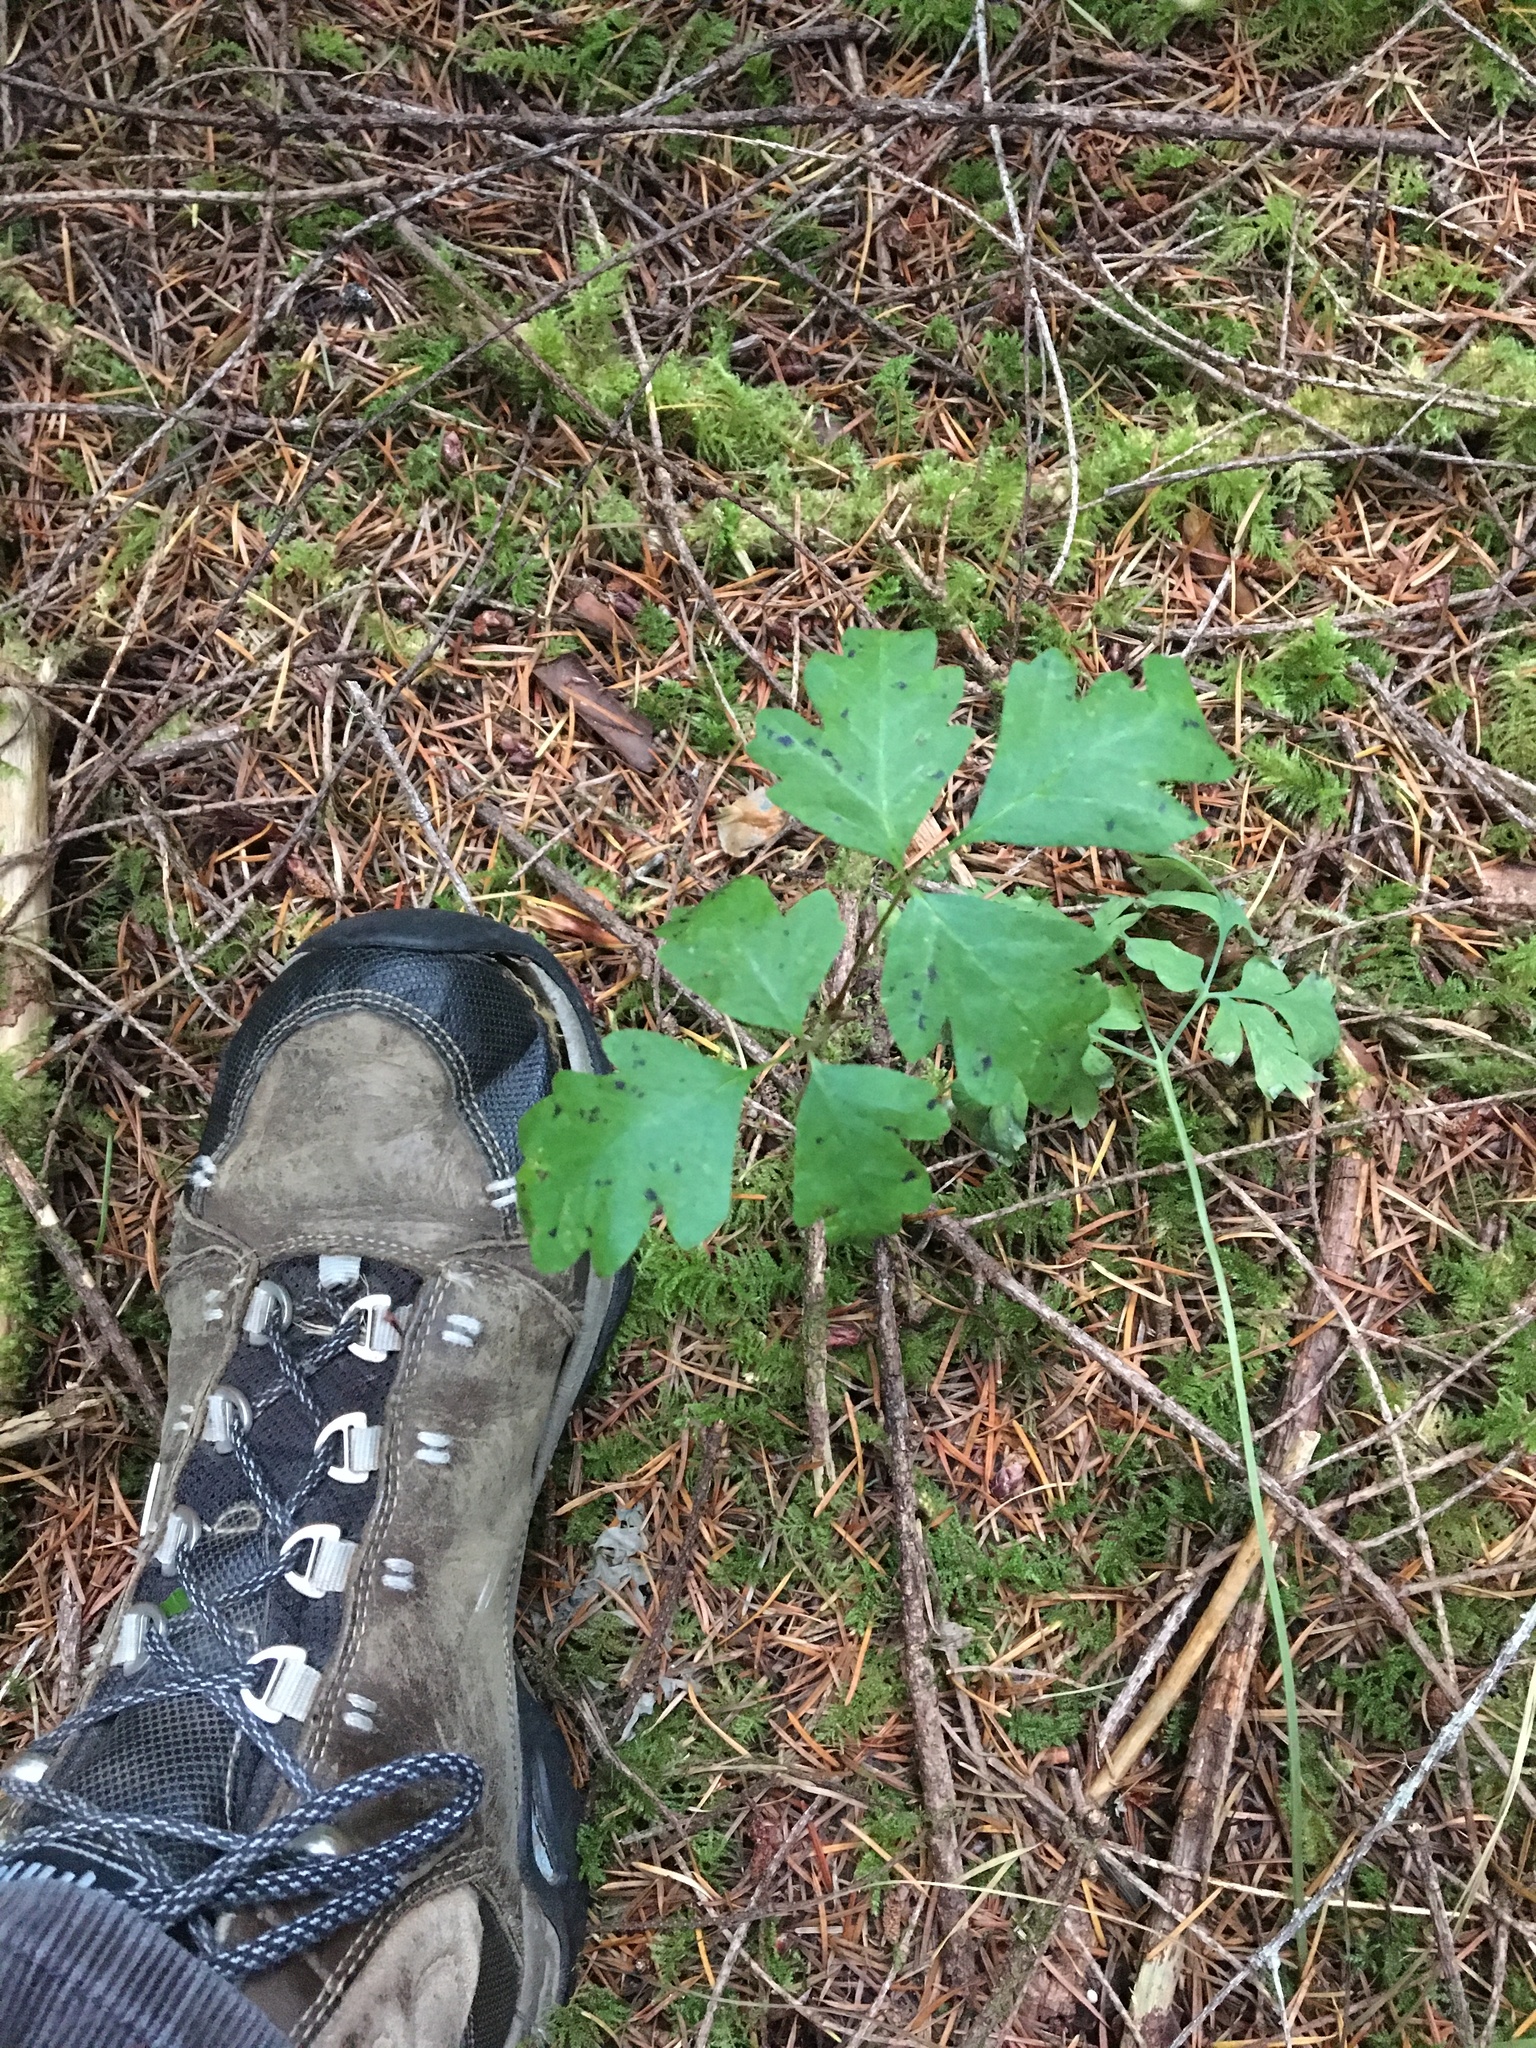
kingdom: Plantae
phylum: Tracheophyta
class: Magnoliopsida
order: Sapindales
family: Anacardiaceae
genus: Toxicodendron
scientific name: Toxicodendron diversilobum
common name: Pacific poison-oak
